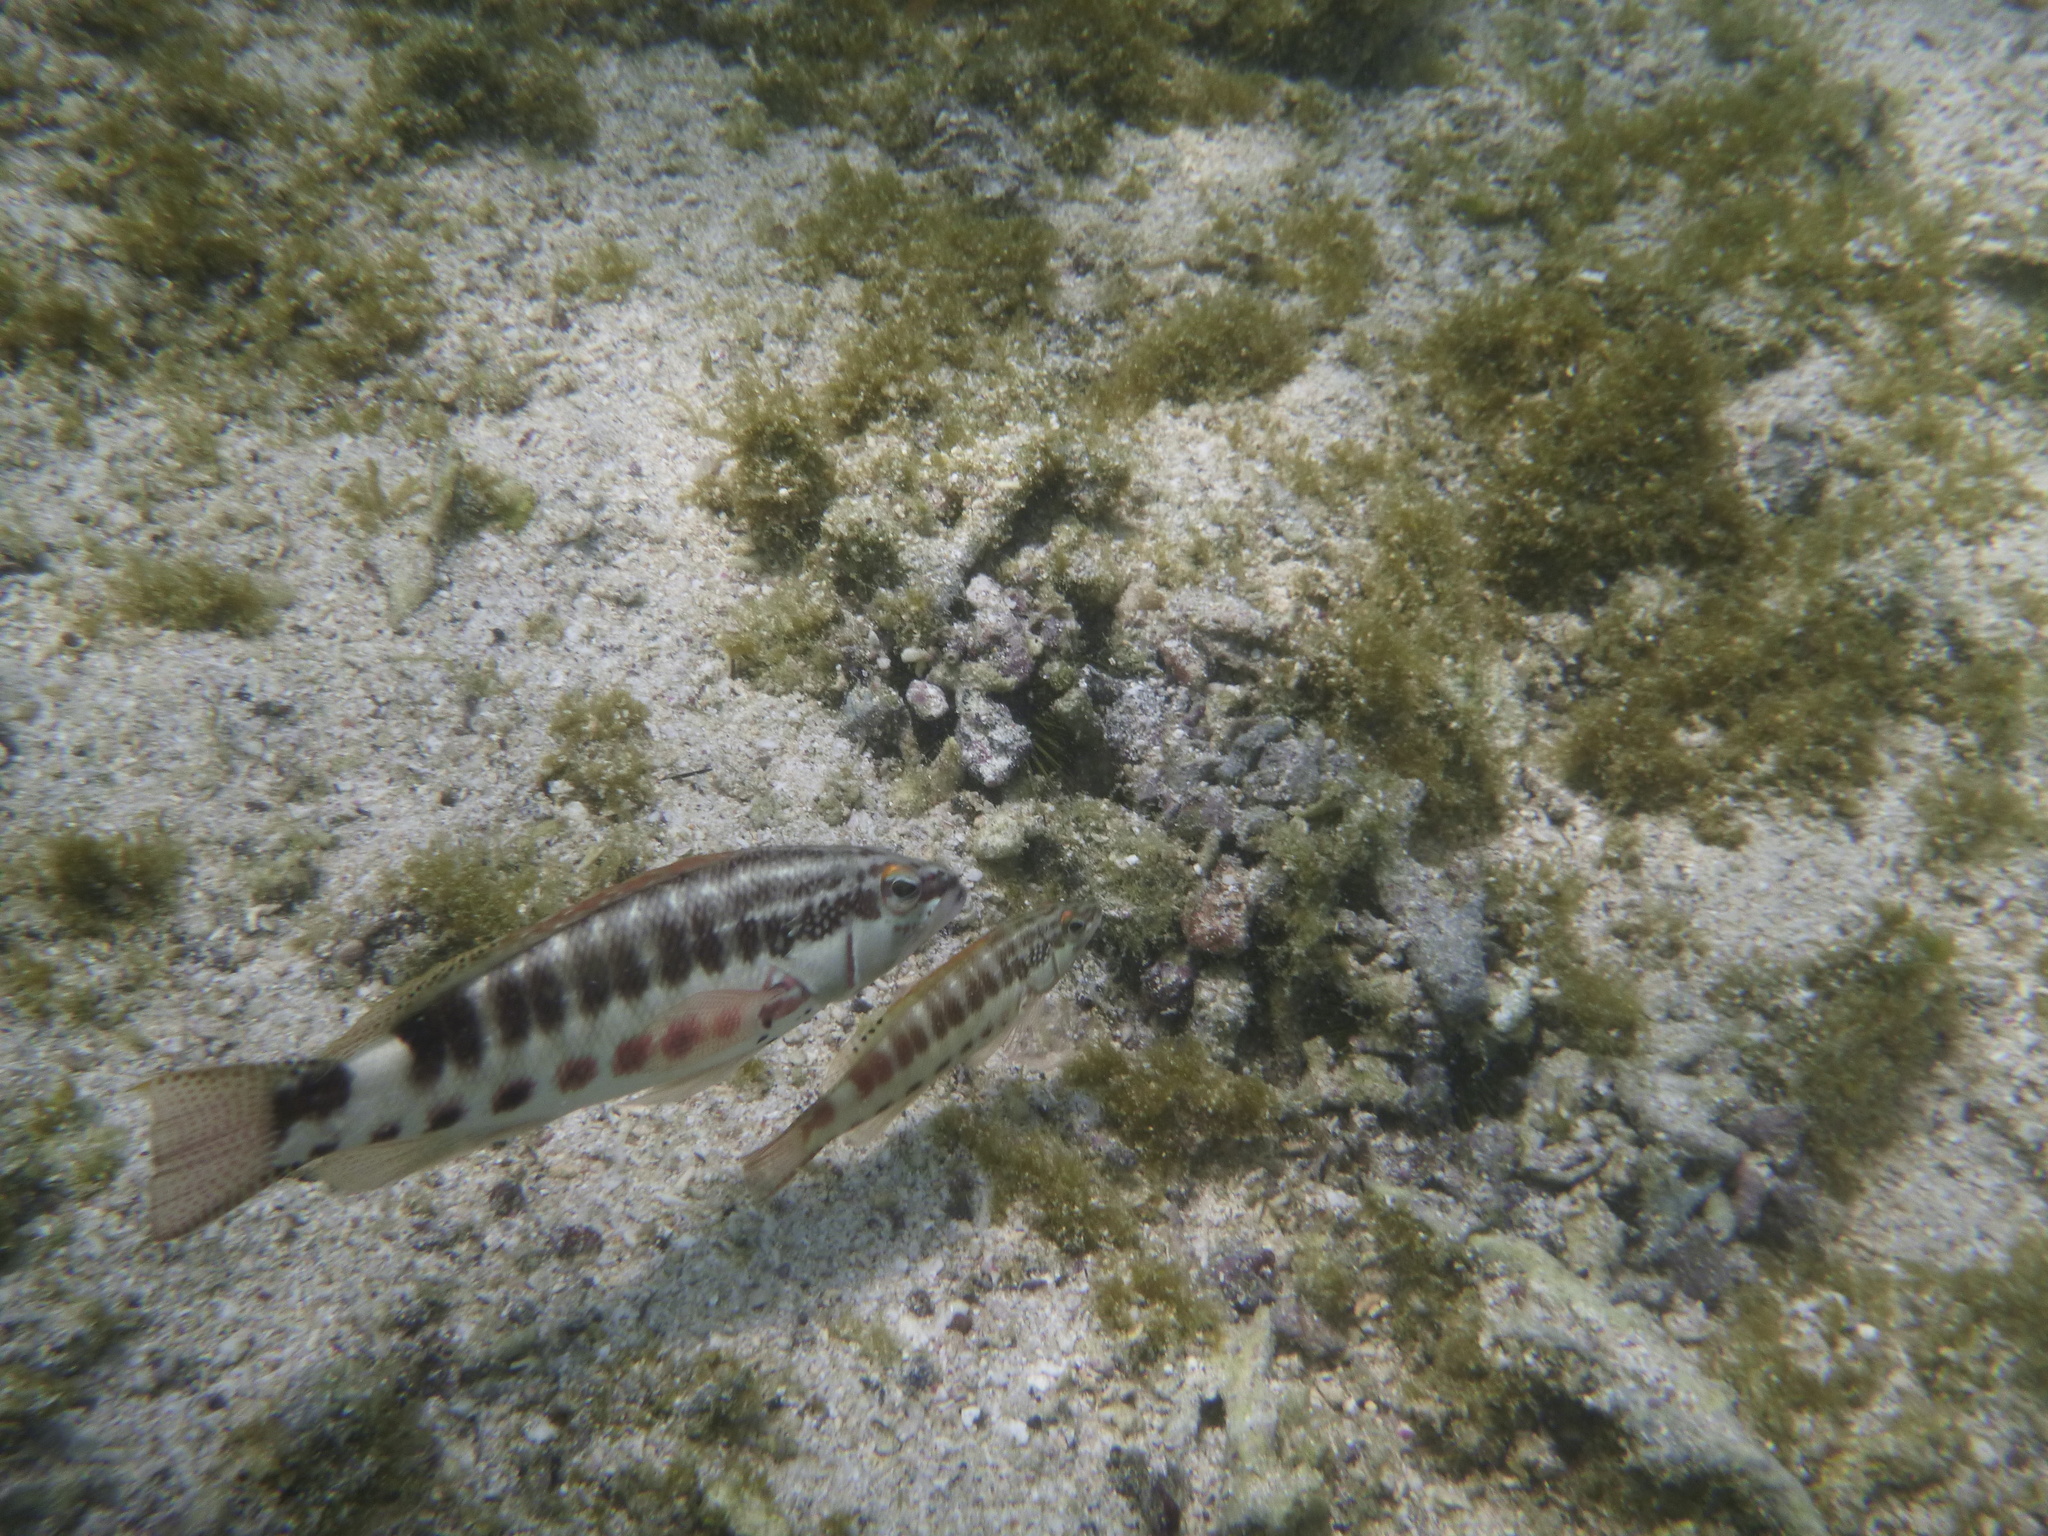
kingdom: Animalia
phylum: Chordata
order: Perciformes
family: Serranidae
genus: Serranus
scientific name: Serranus psittacinus
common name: Barred serrano
